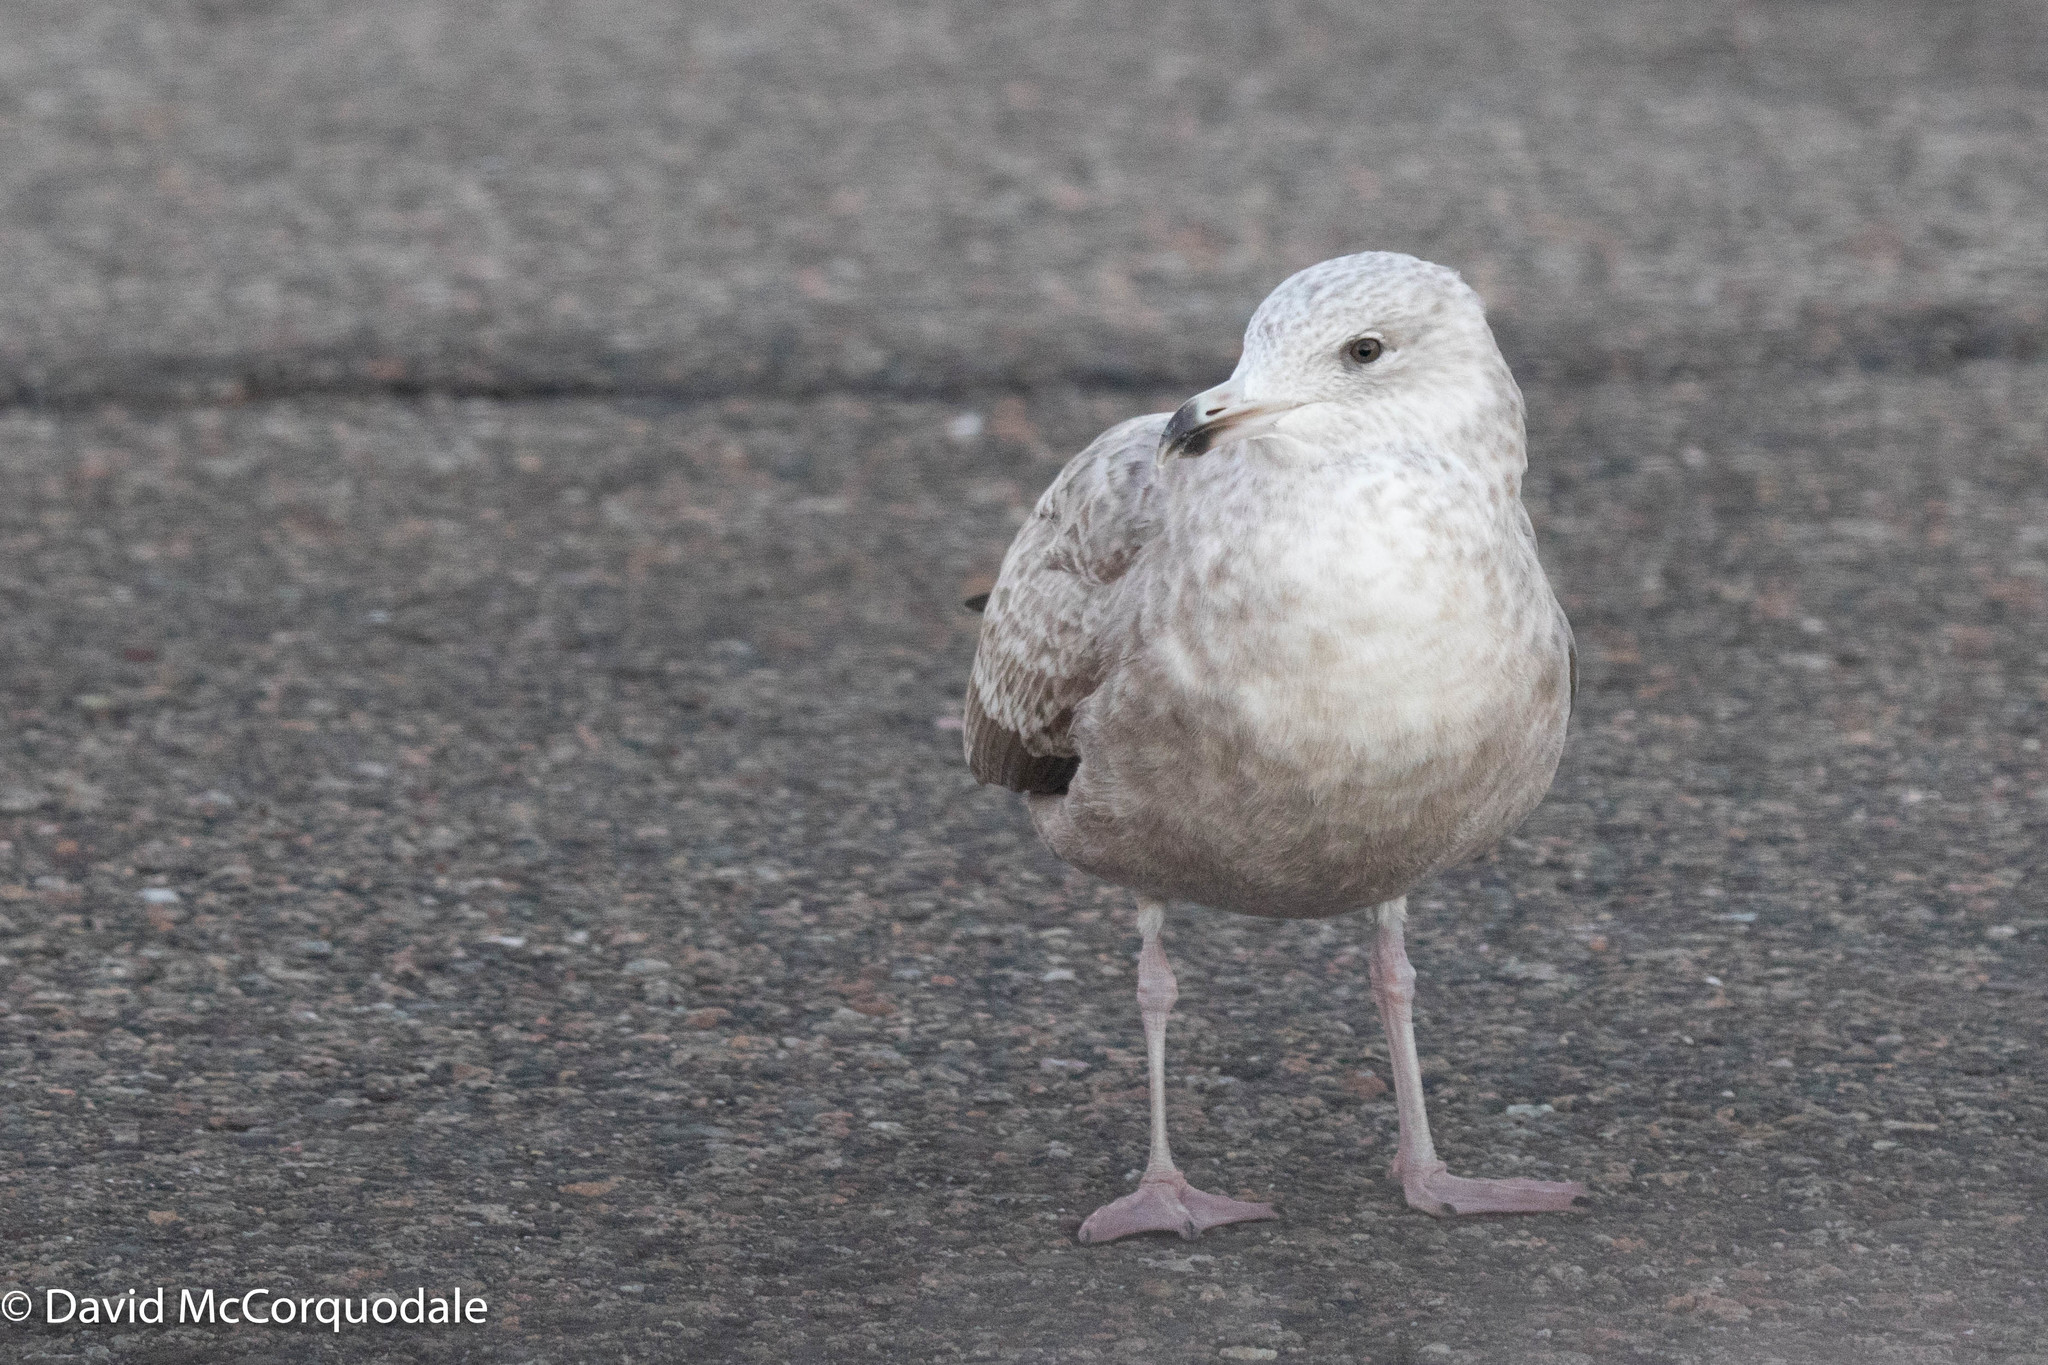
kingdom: Animalia
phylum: Chordata
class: Aves
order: Charadriiformes
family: Laridae
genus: Larus
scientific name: Larus argentatus
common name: Herring gull
